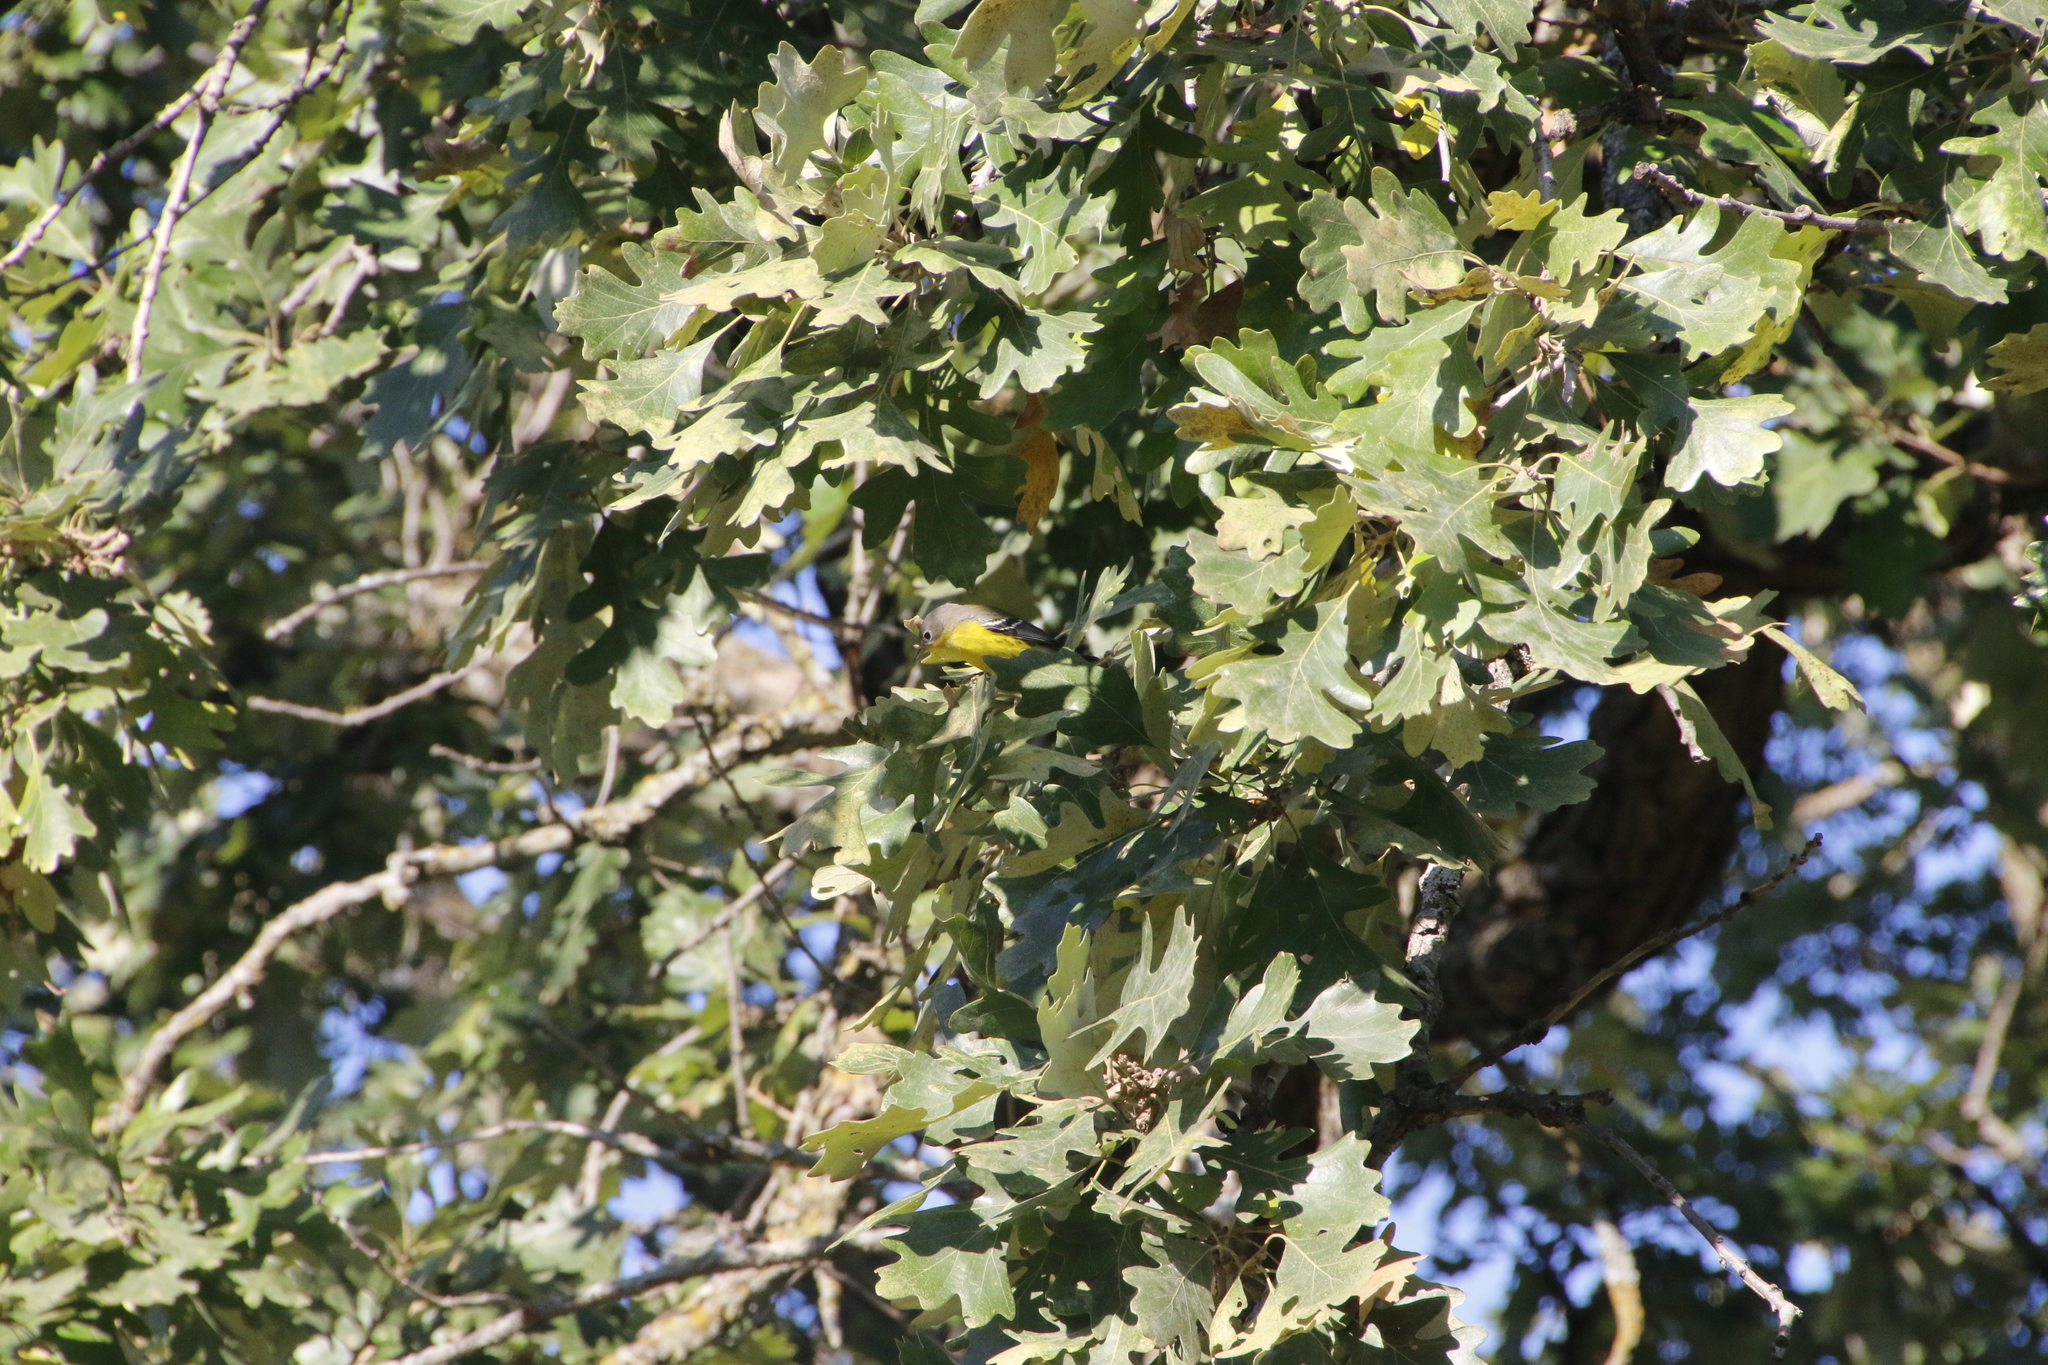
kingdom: Animalia
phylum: Chordata
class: Aves
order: Passeriformes
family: Parulidae
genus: Setophaga
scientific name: Setophaga magnolia
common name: Magnolia warbler
